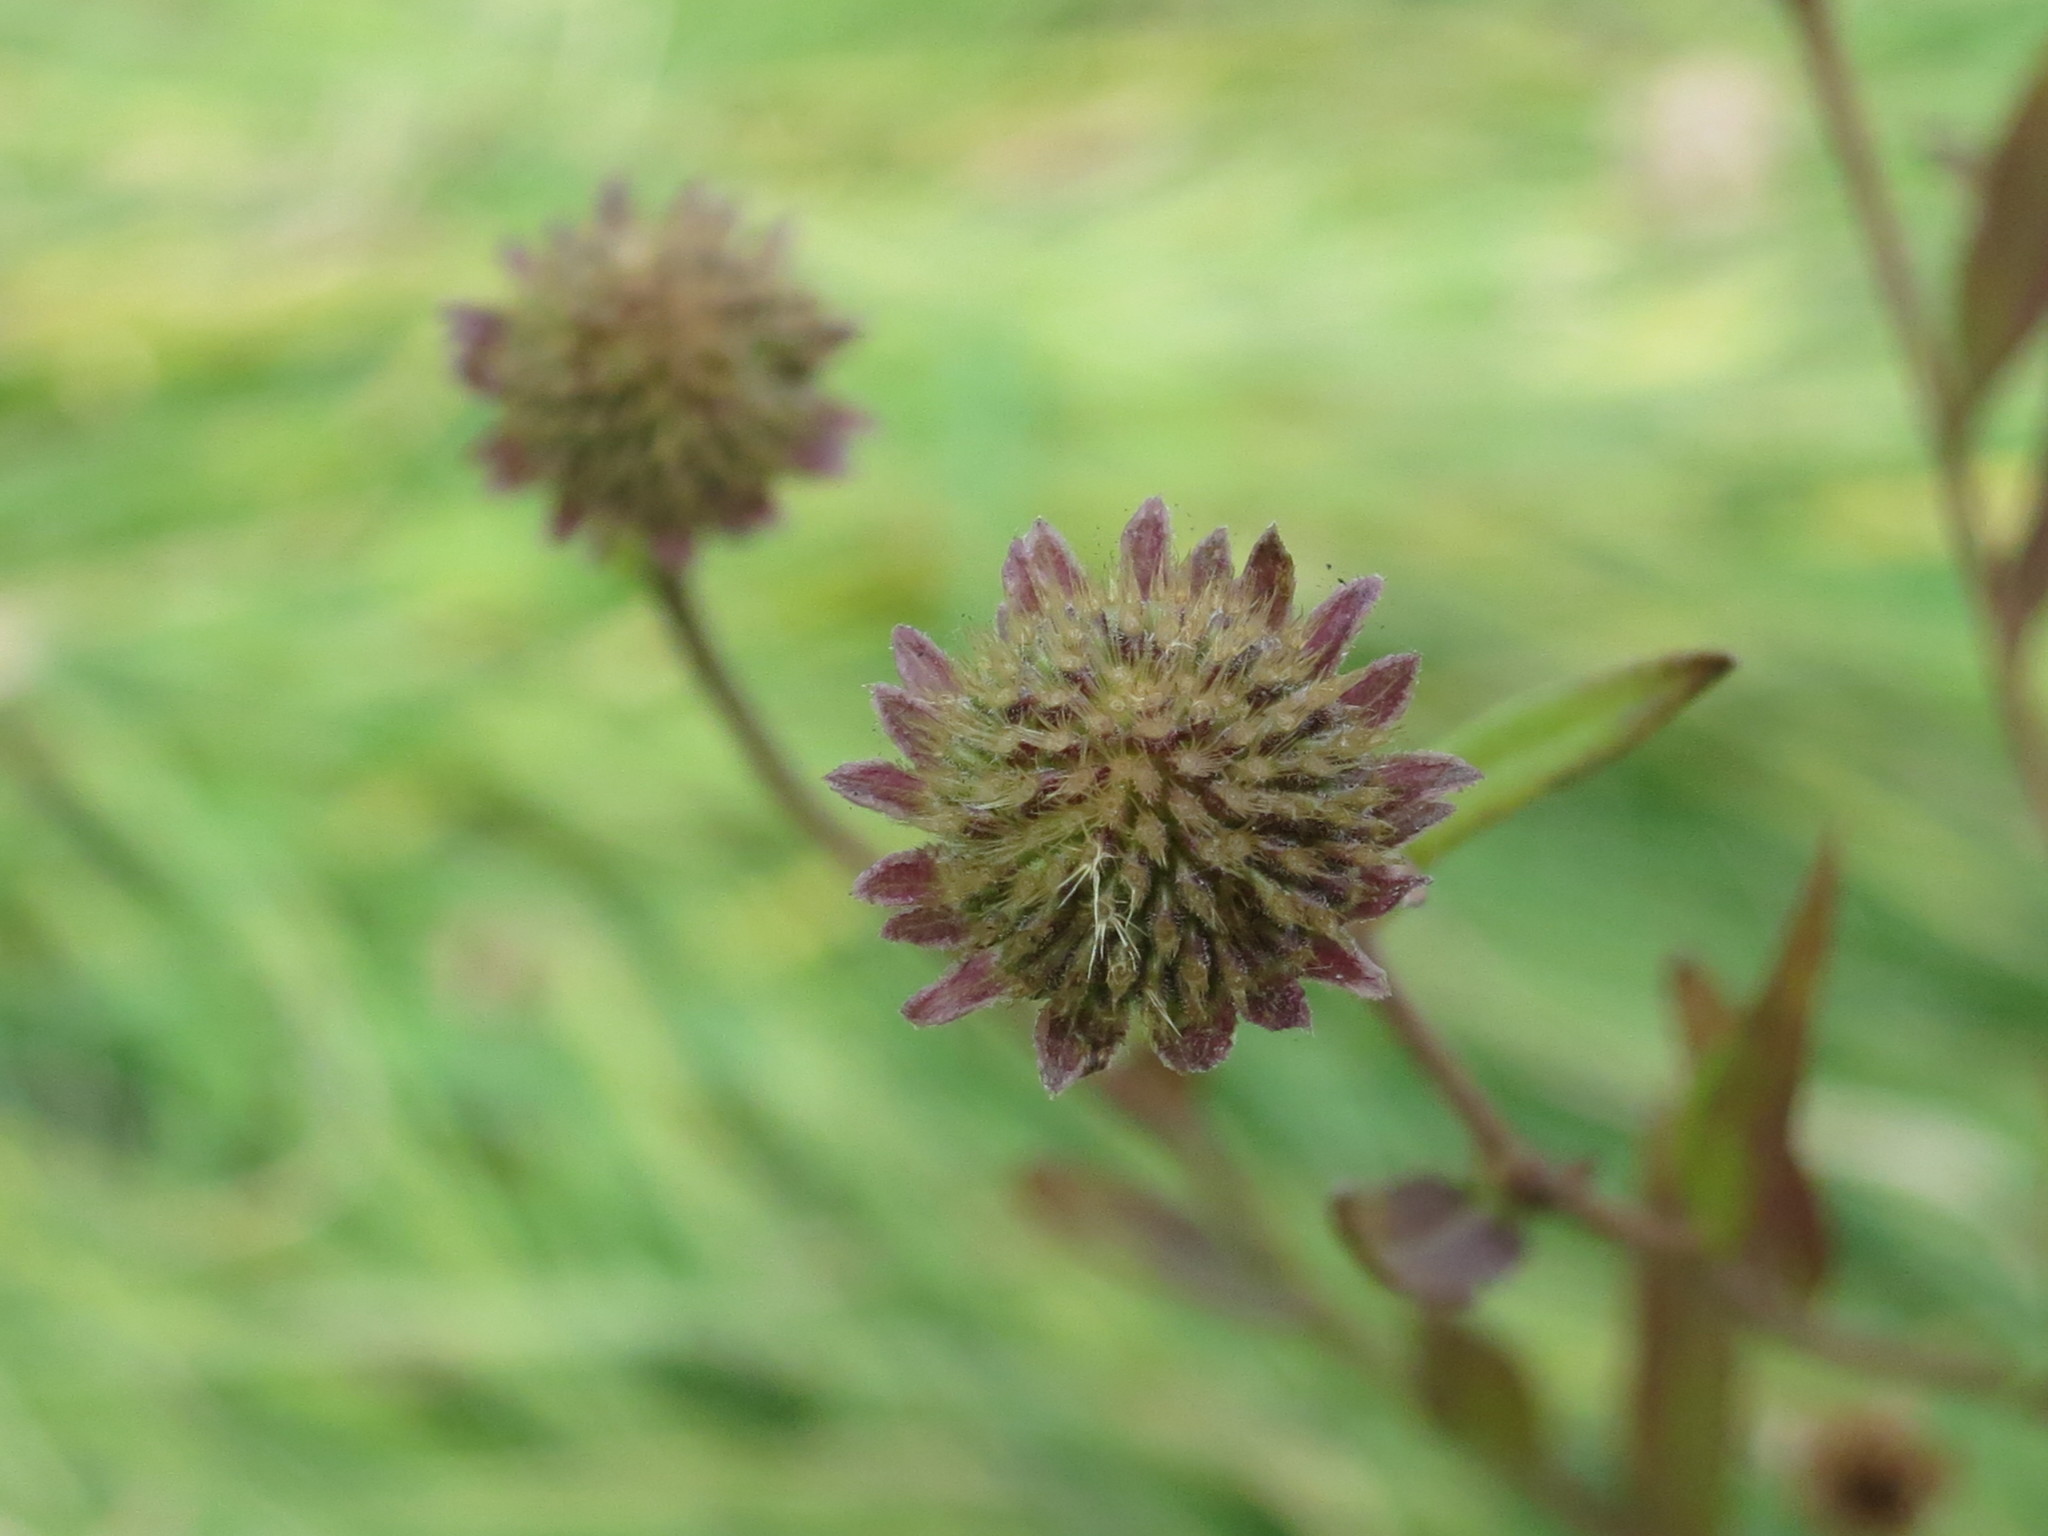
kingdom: Plantae
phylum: Tracheophyta
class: Magnoliopsida
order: Asterales
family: Asteraceae
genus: Kalimeris
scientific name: Kalimeris incisa
